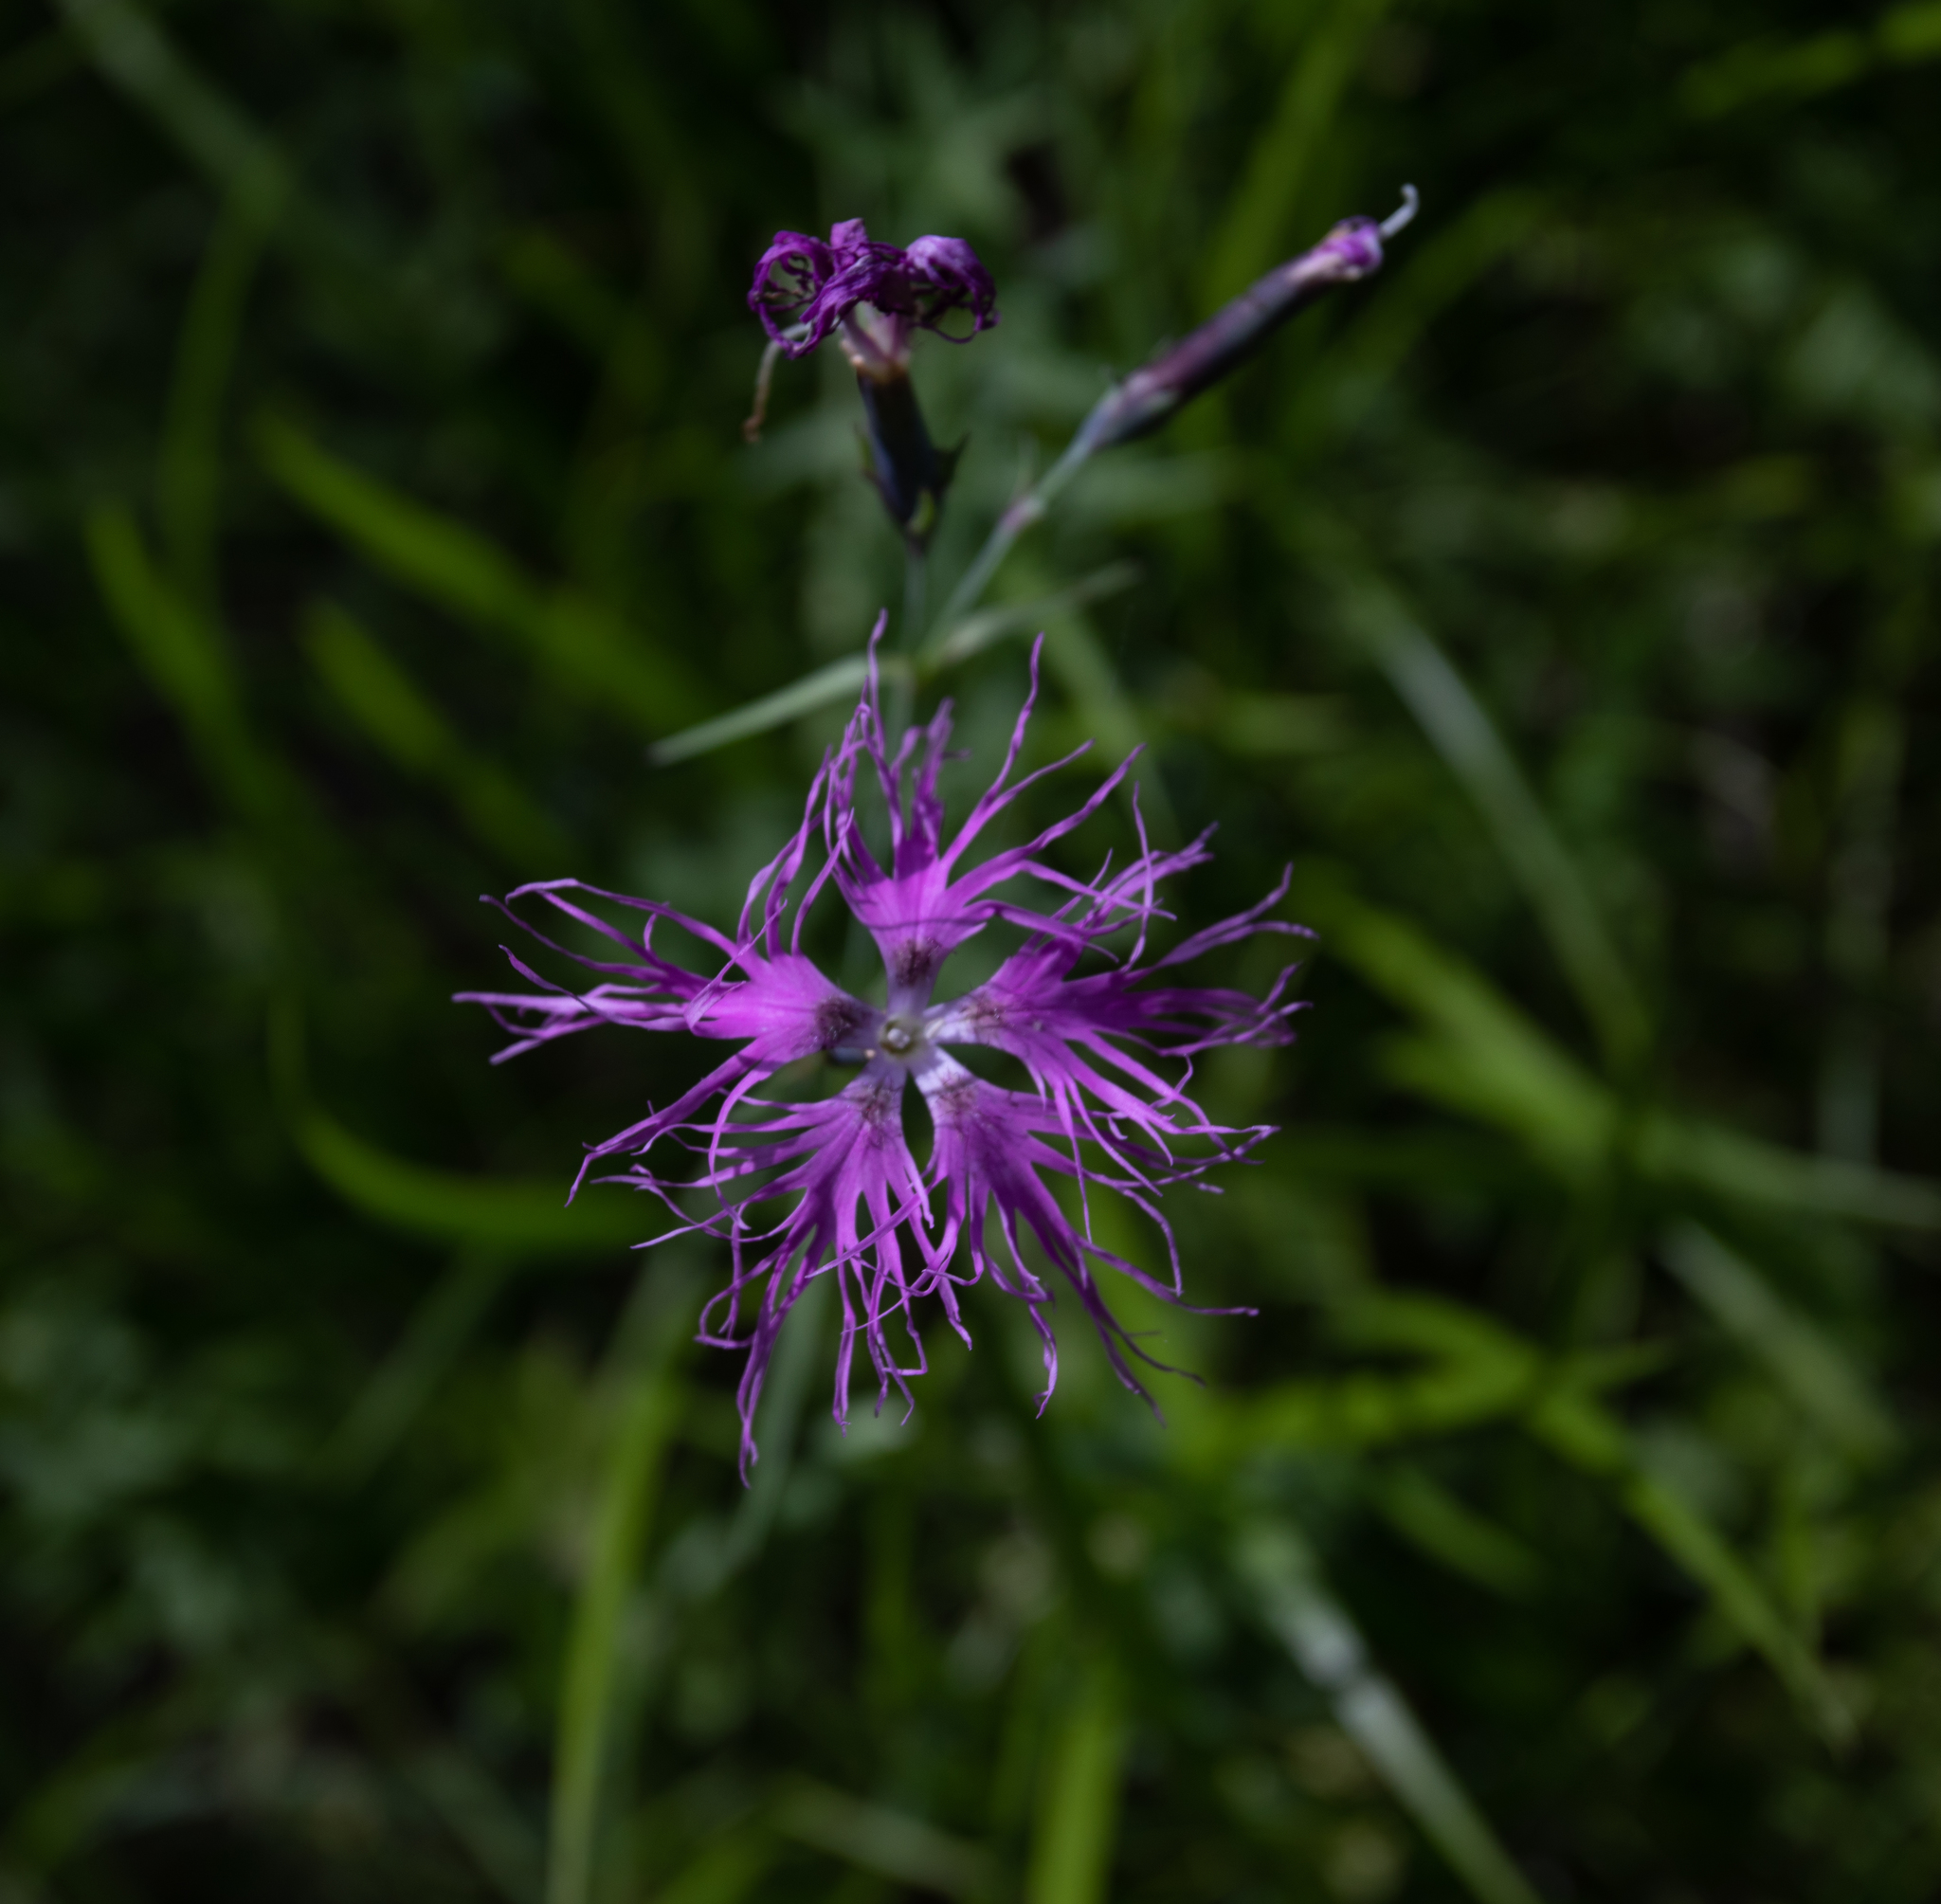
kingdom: Plantae
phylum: Tracheophyta
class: Magnoliopsida
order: Caryophyllales
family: Caryophyllaceae
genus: Dianthus
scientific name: Dianthus superbus
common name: Fringed pink
